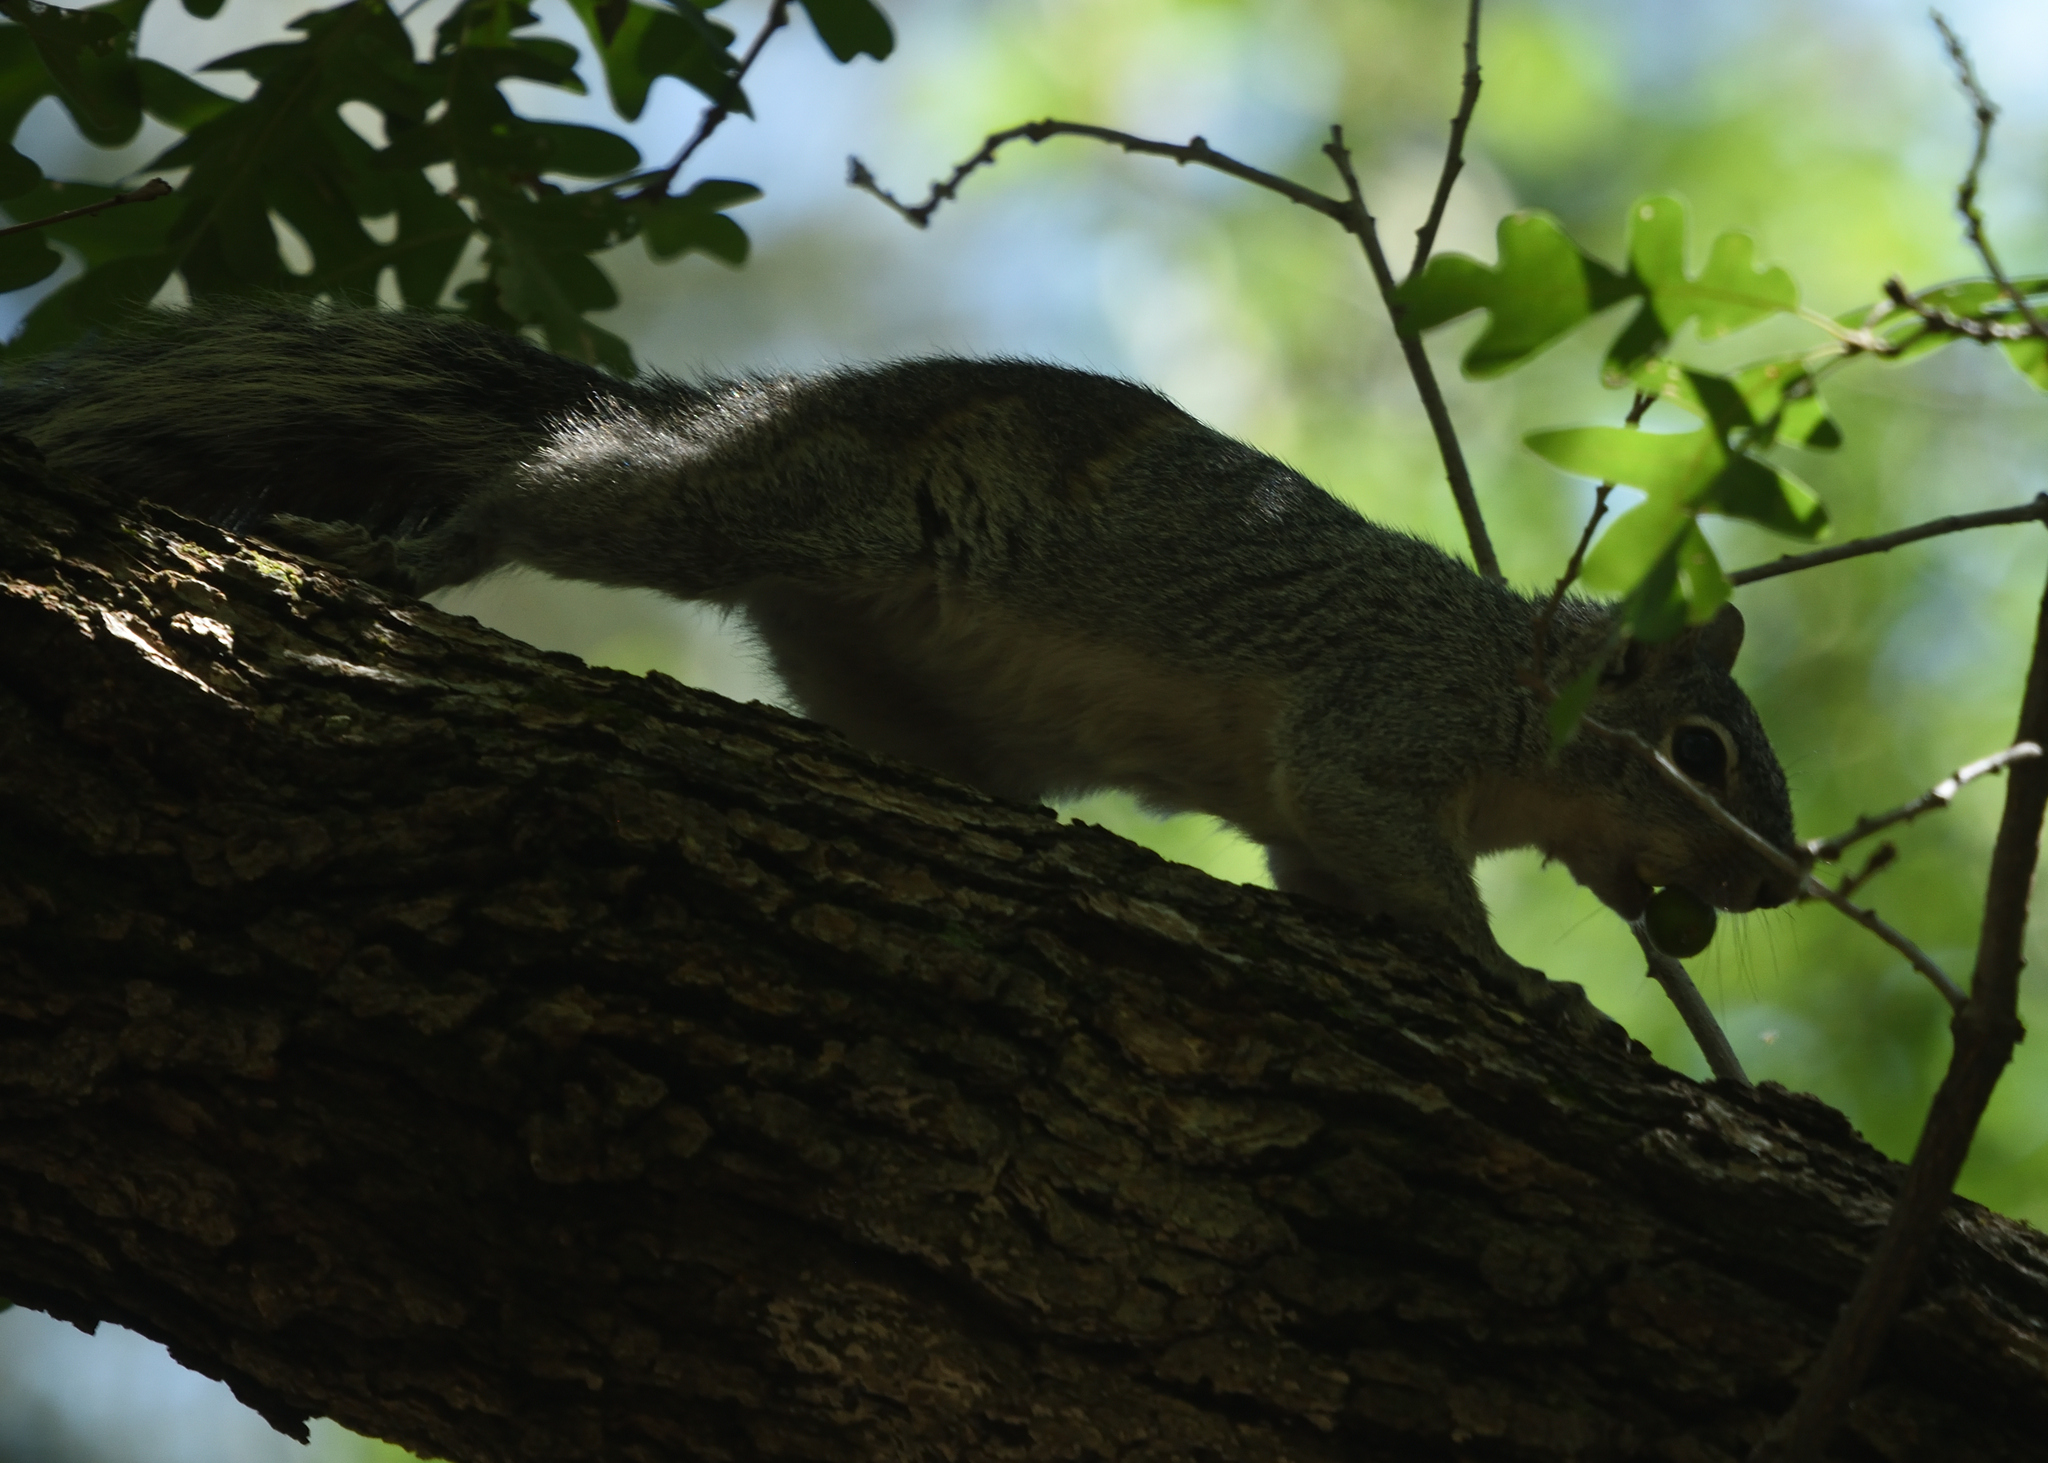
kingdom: Animalia
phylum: Chordata
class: Mammalia
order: Rodentia
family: Sciuridae
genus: Sciurus
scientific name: Sciurus arizonensis
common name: Arizona gray squirrel
